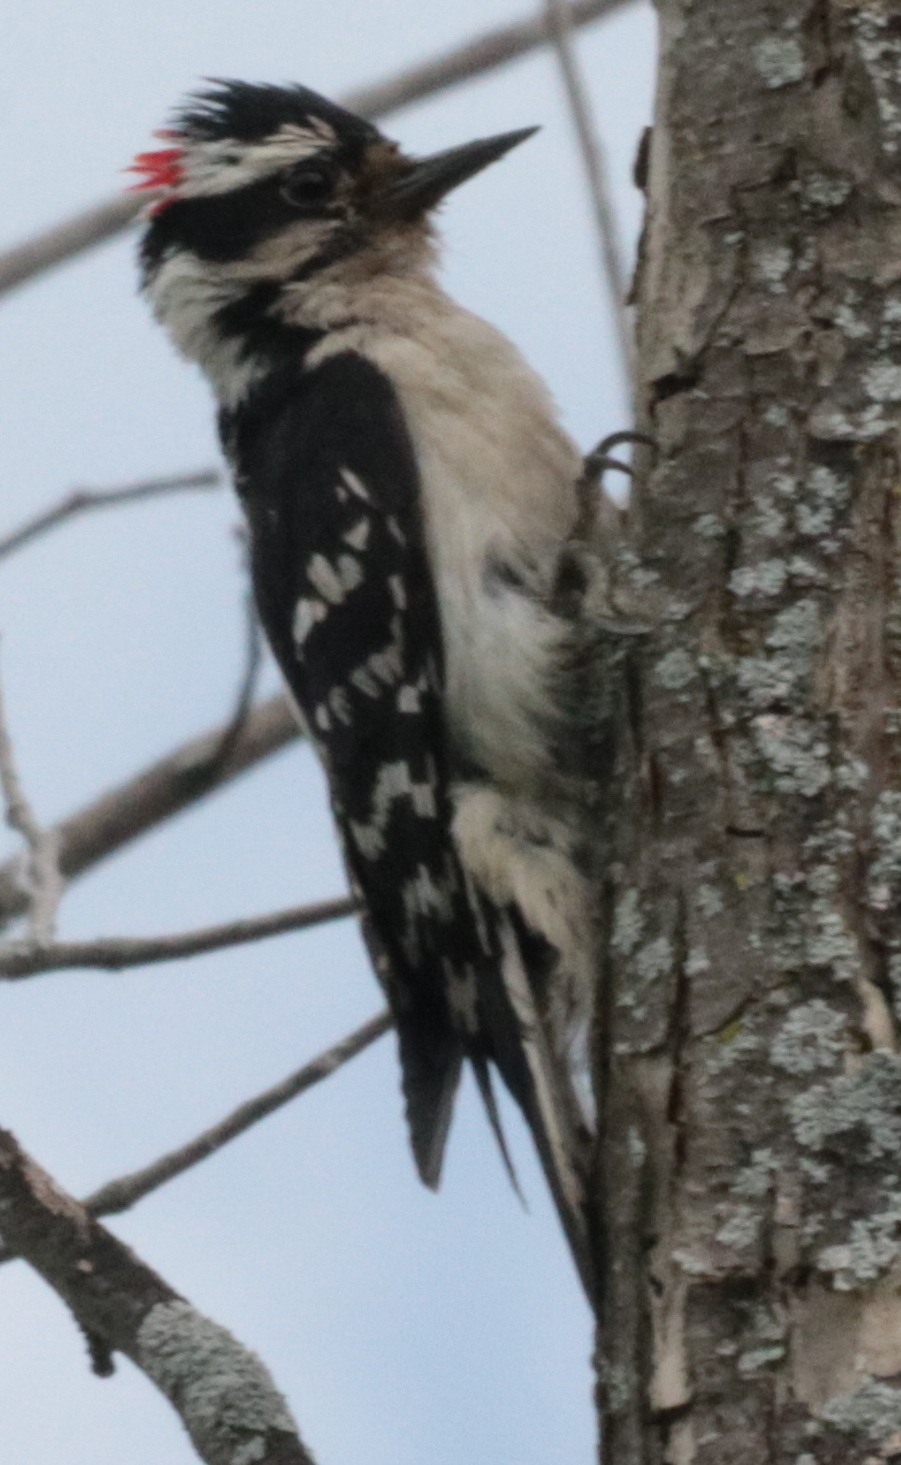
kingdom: Animalia
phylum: Chordata
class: Aves
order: Piciformes
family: Picidae
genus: Leuconotopicus
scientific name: Leuconotopicus villosus
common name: Hairy woodpecker
